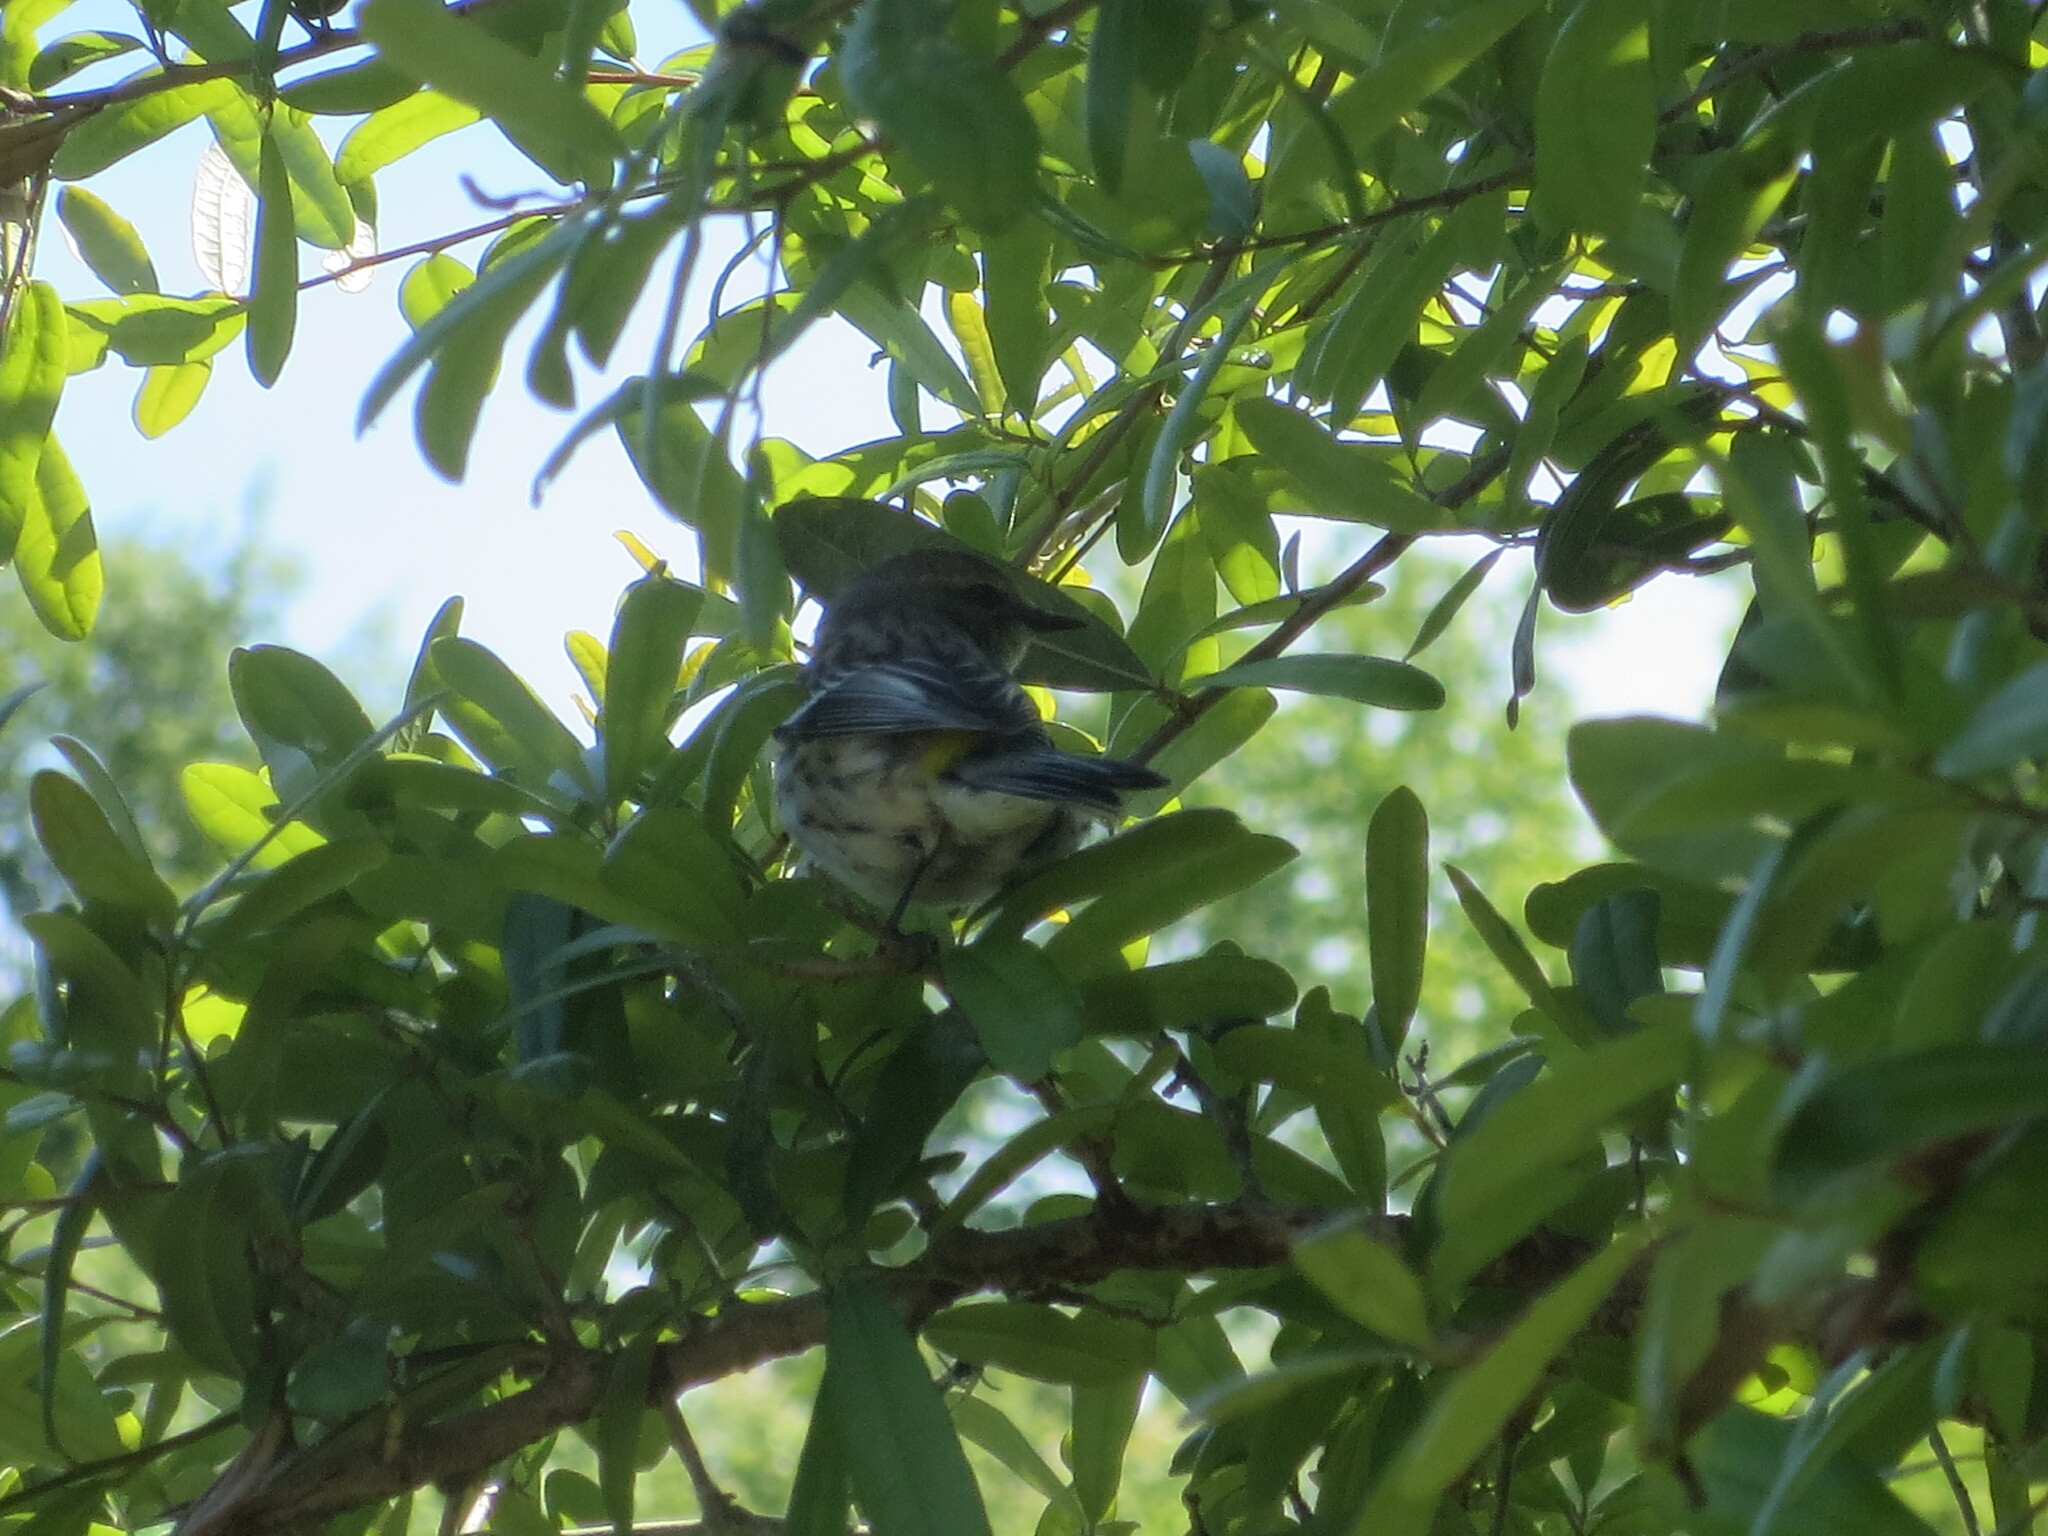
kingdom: Animalia
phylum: Chordata
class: Aves
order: Passeriformes
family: Parulidae
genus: Setophaga
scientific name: Setophaga coronata
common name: Myrtle warbler
